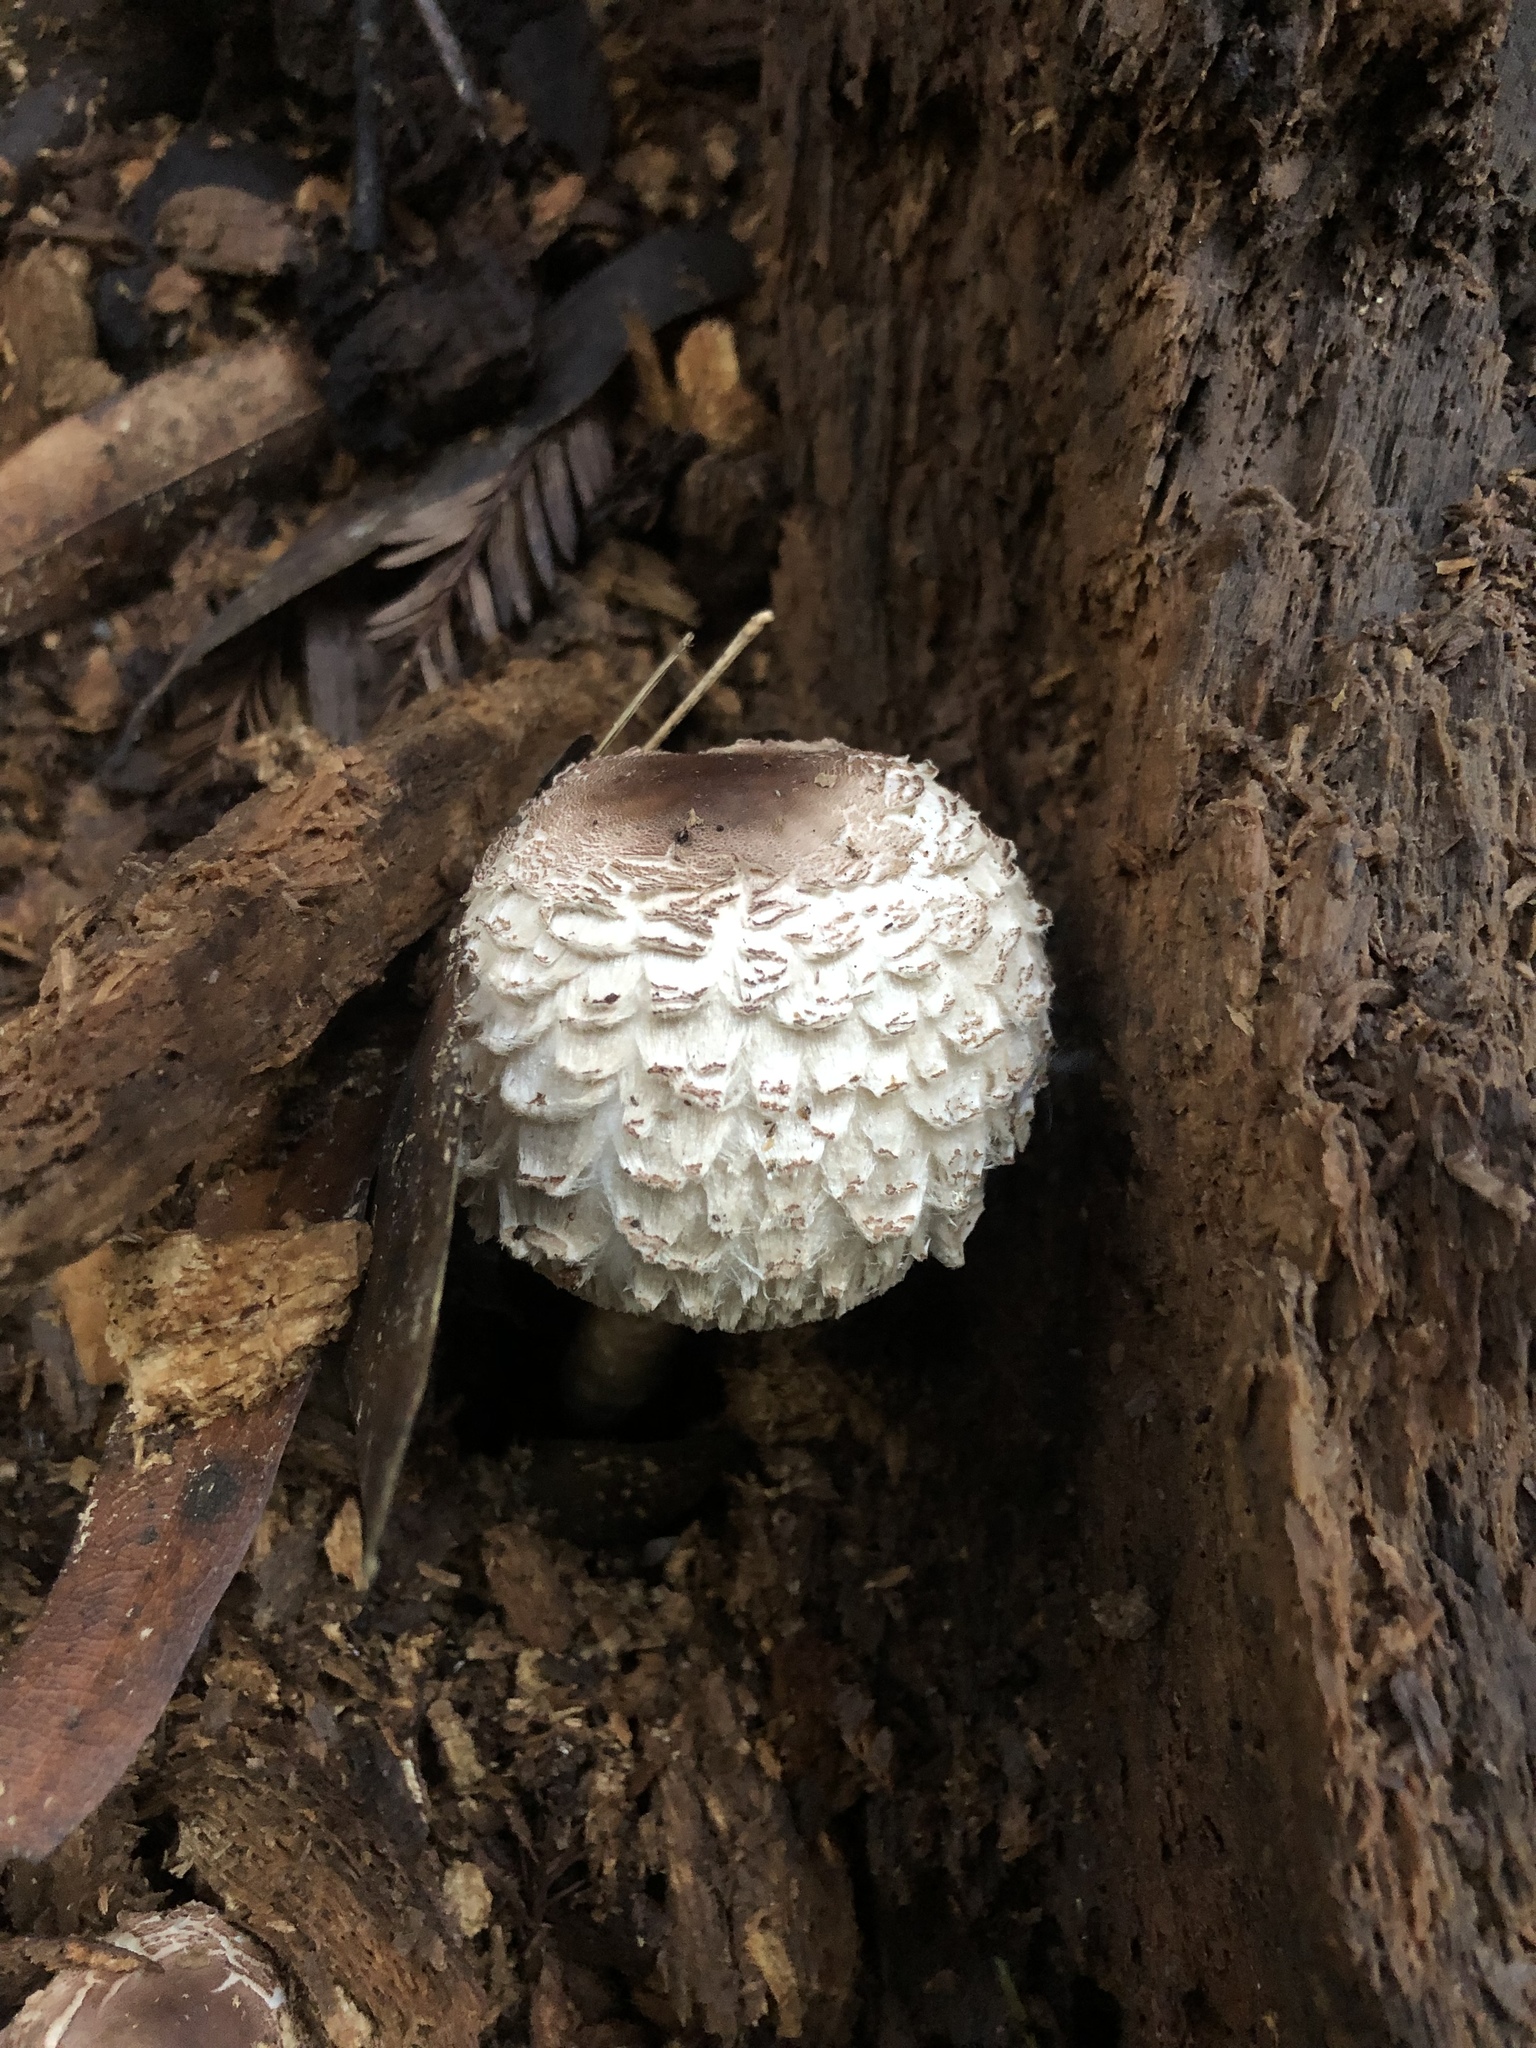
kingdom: Fungi
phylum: Basidiomycota
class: Agaricomycetes
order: Agaricales
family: Agaricaceae
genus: Chlorophyllum
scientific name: Chlorophyllum brunneum
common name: Brown parasol
